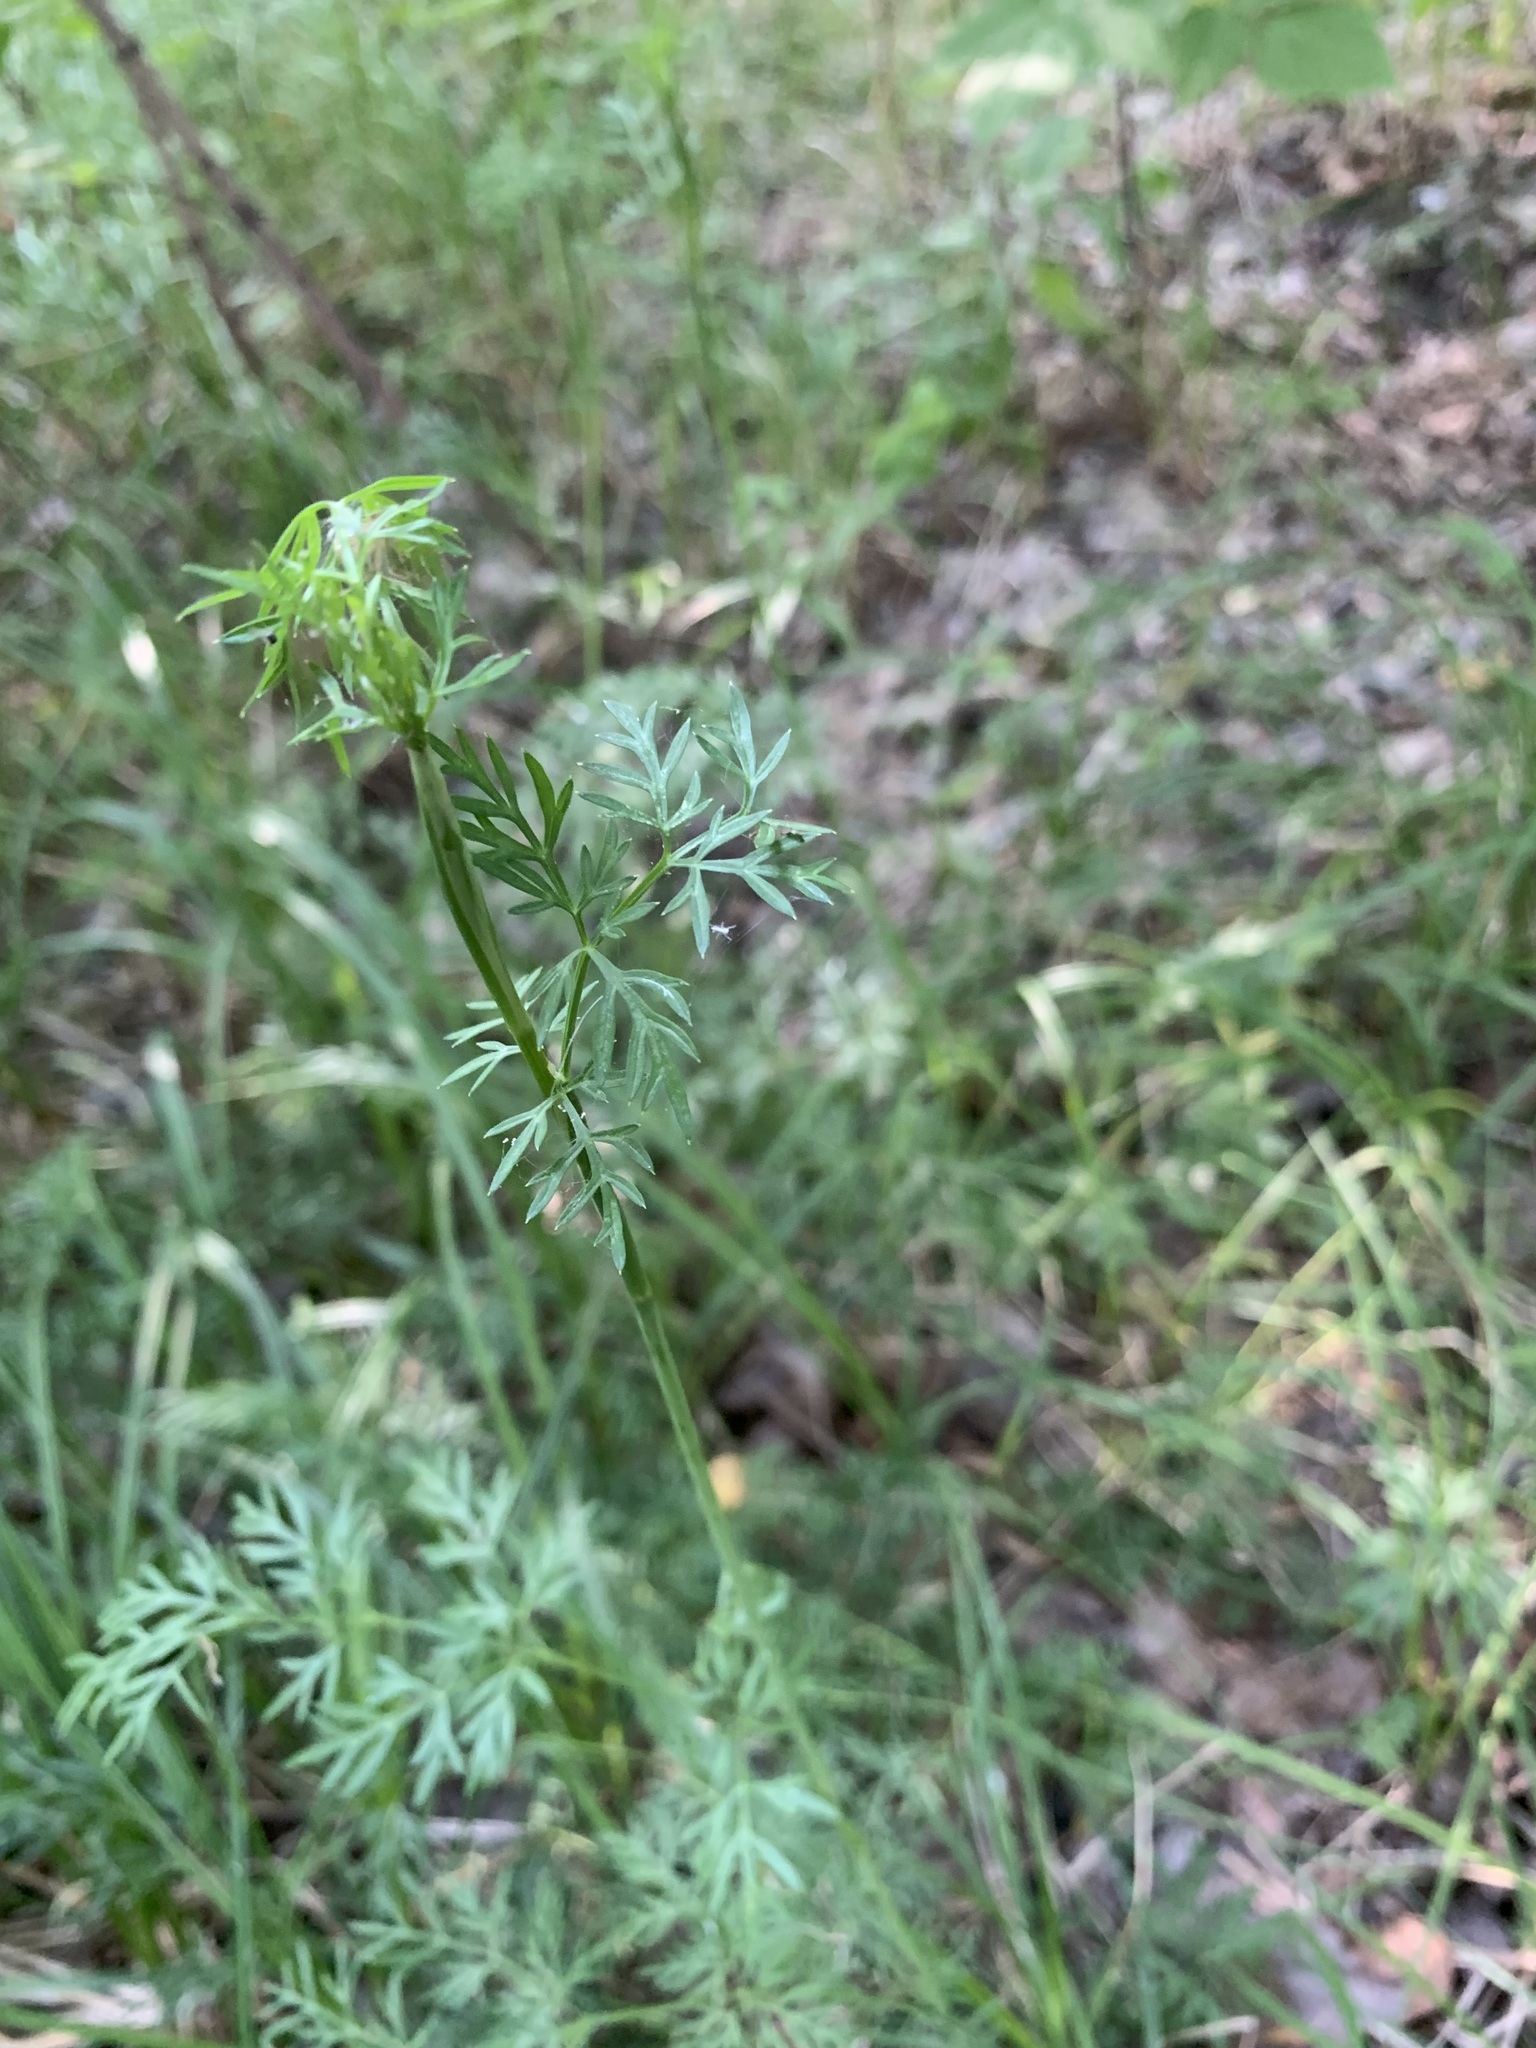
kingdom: Plantae
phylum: Tracheophyta
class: Magnoliopsida
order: Apiales
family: Apiaceae
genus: Kadenia
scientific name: Kadenia dubia
